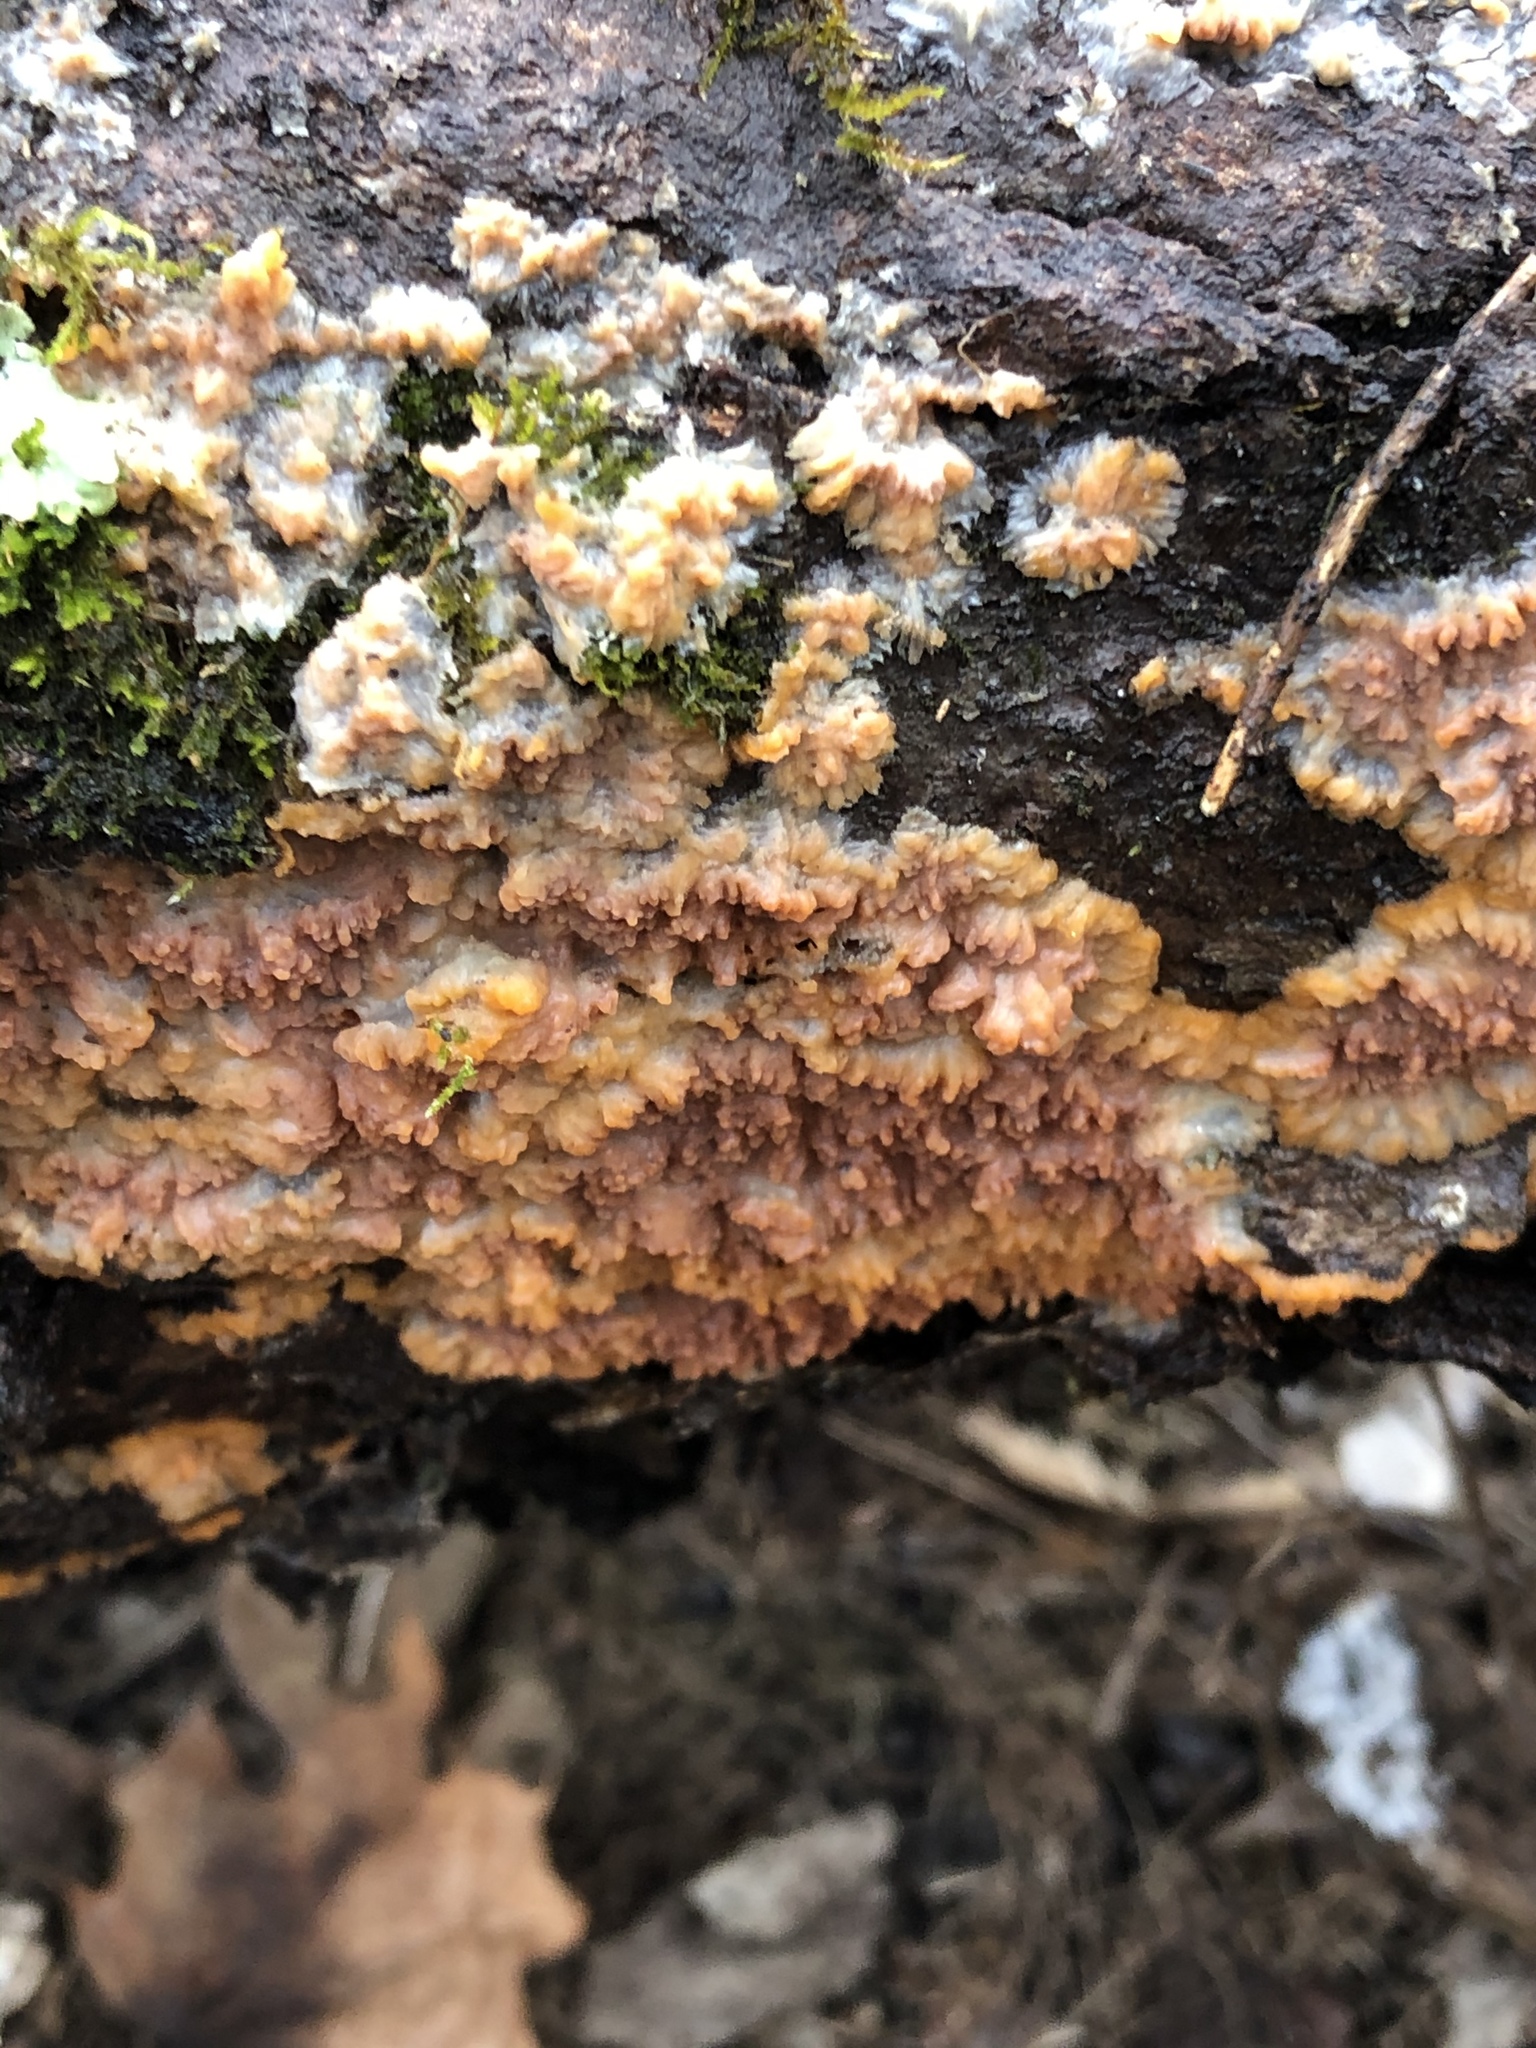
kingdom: Fungi
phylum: Basidiomycota
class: Agaricomycetes
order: Polyporales
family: Meruliaceae
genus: Phlebia
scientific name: Phlebia radiata
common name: Wrinkled crust
